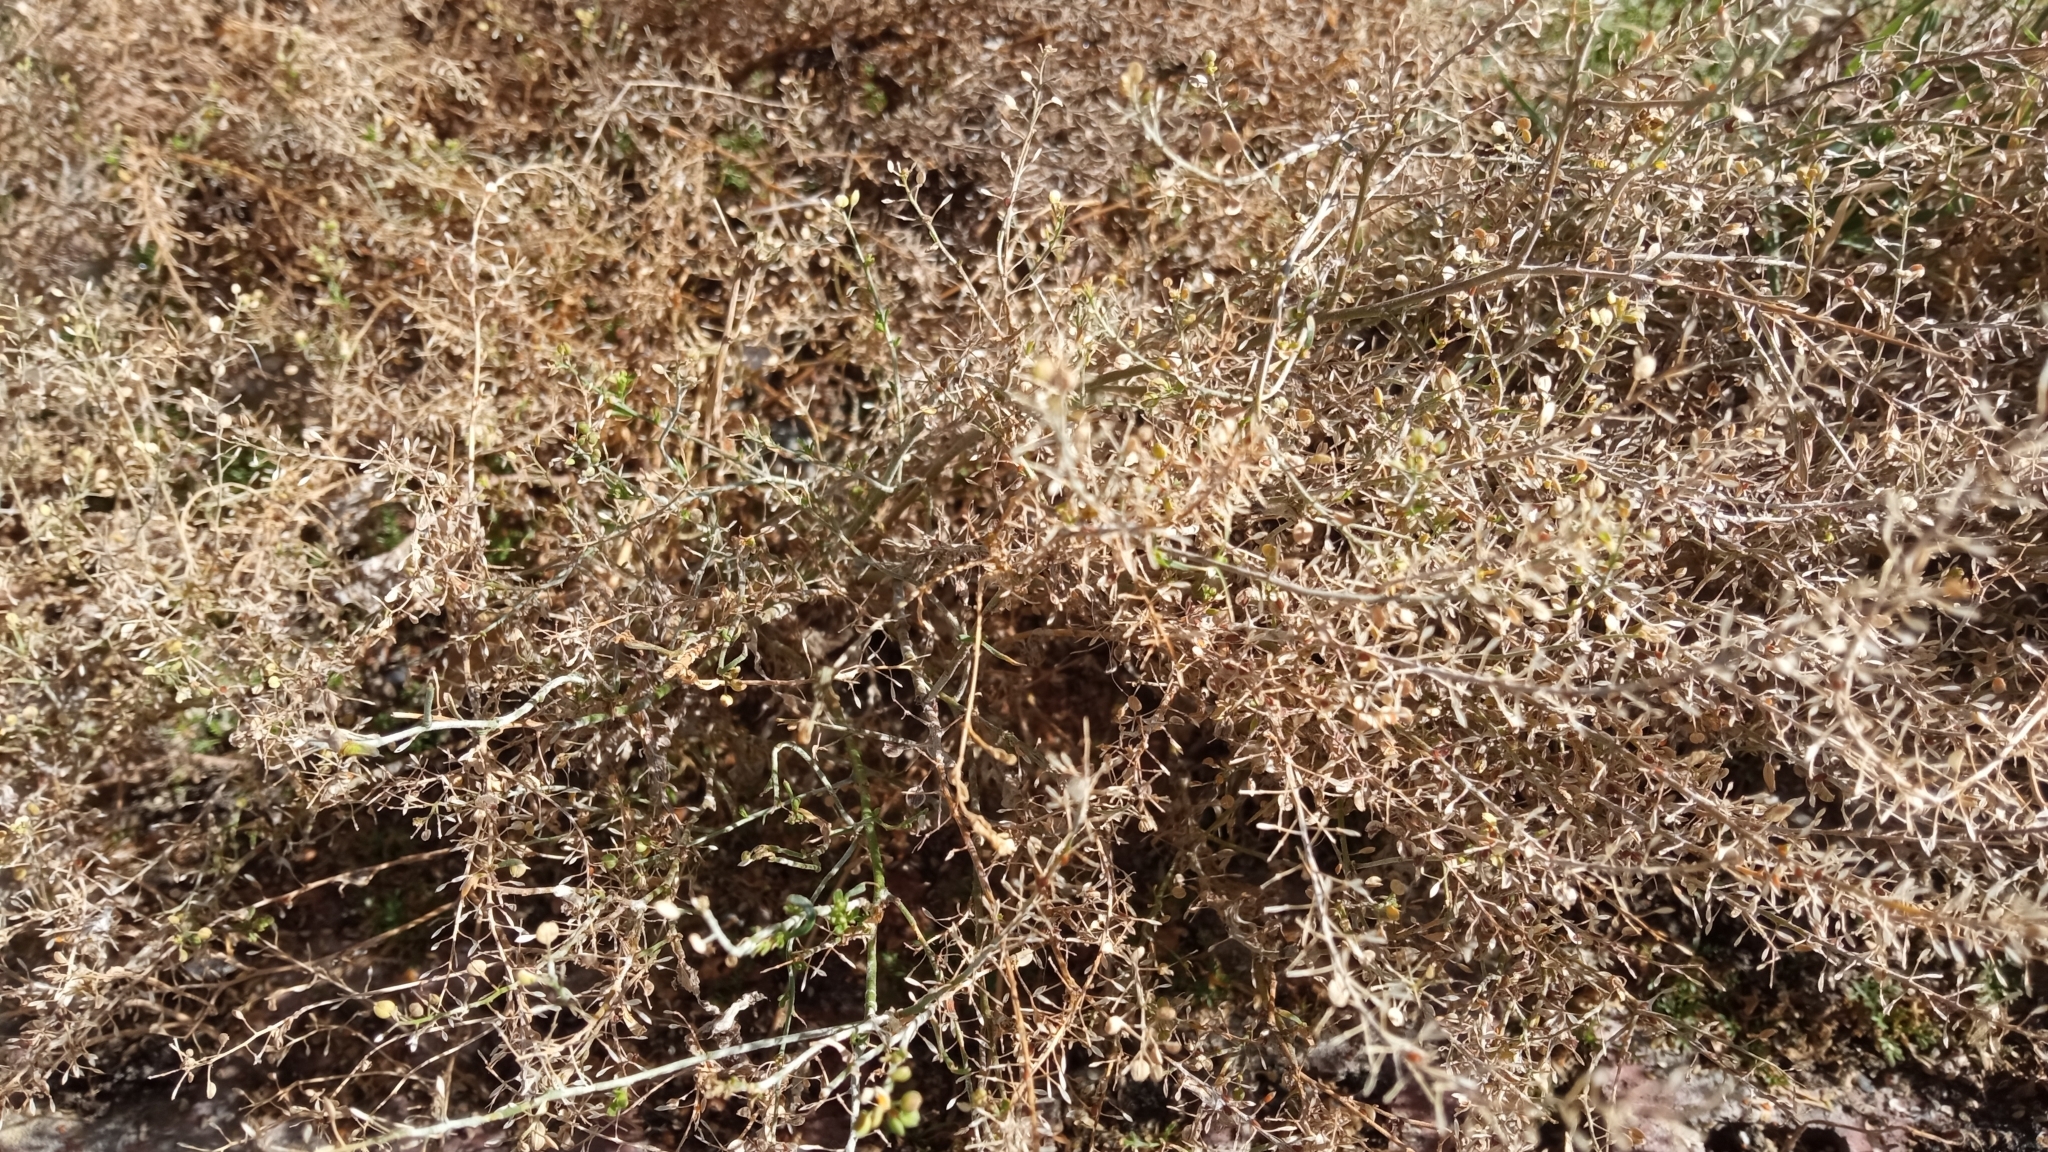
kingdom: Plantae
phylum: Tracheophyta
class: Magnoliopsida
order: Brassicales
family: Brassicaceae
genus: Lepidium
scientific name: Lepidium ruderale
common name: Narrow-leaved pepperwort
